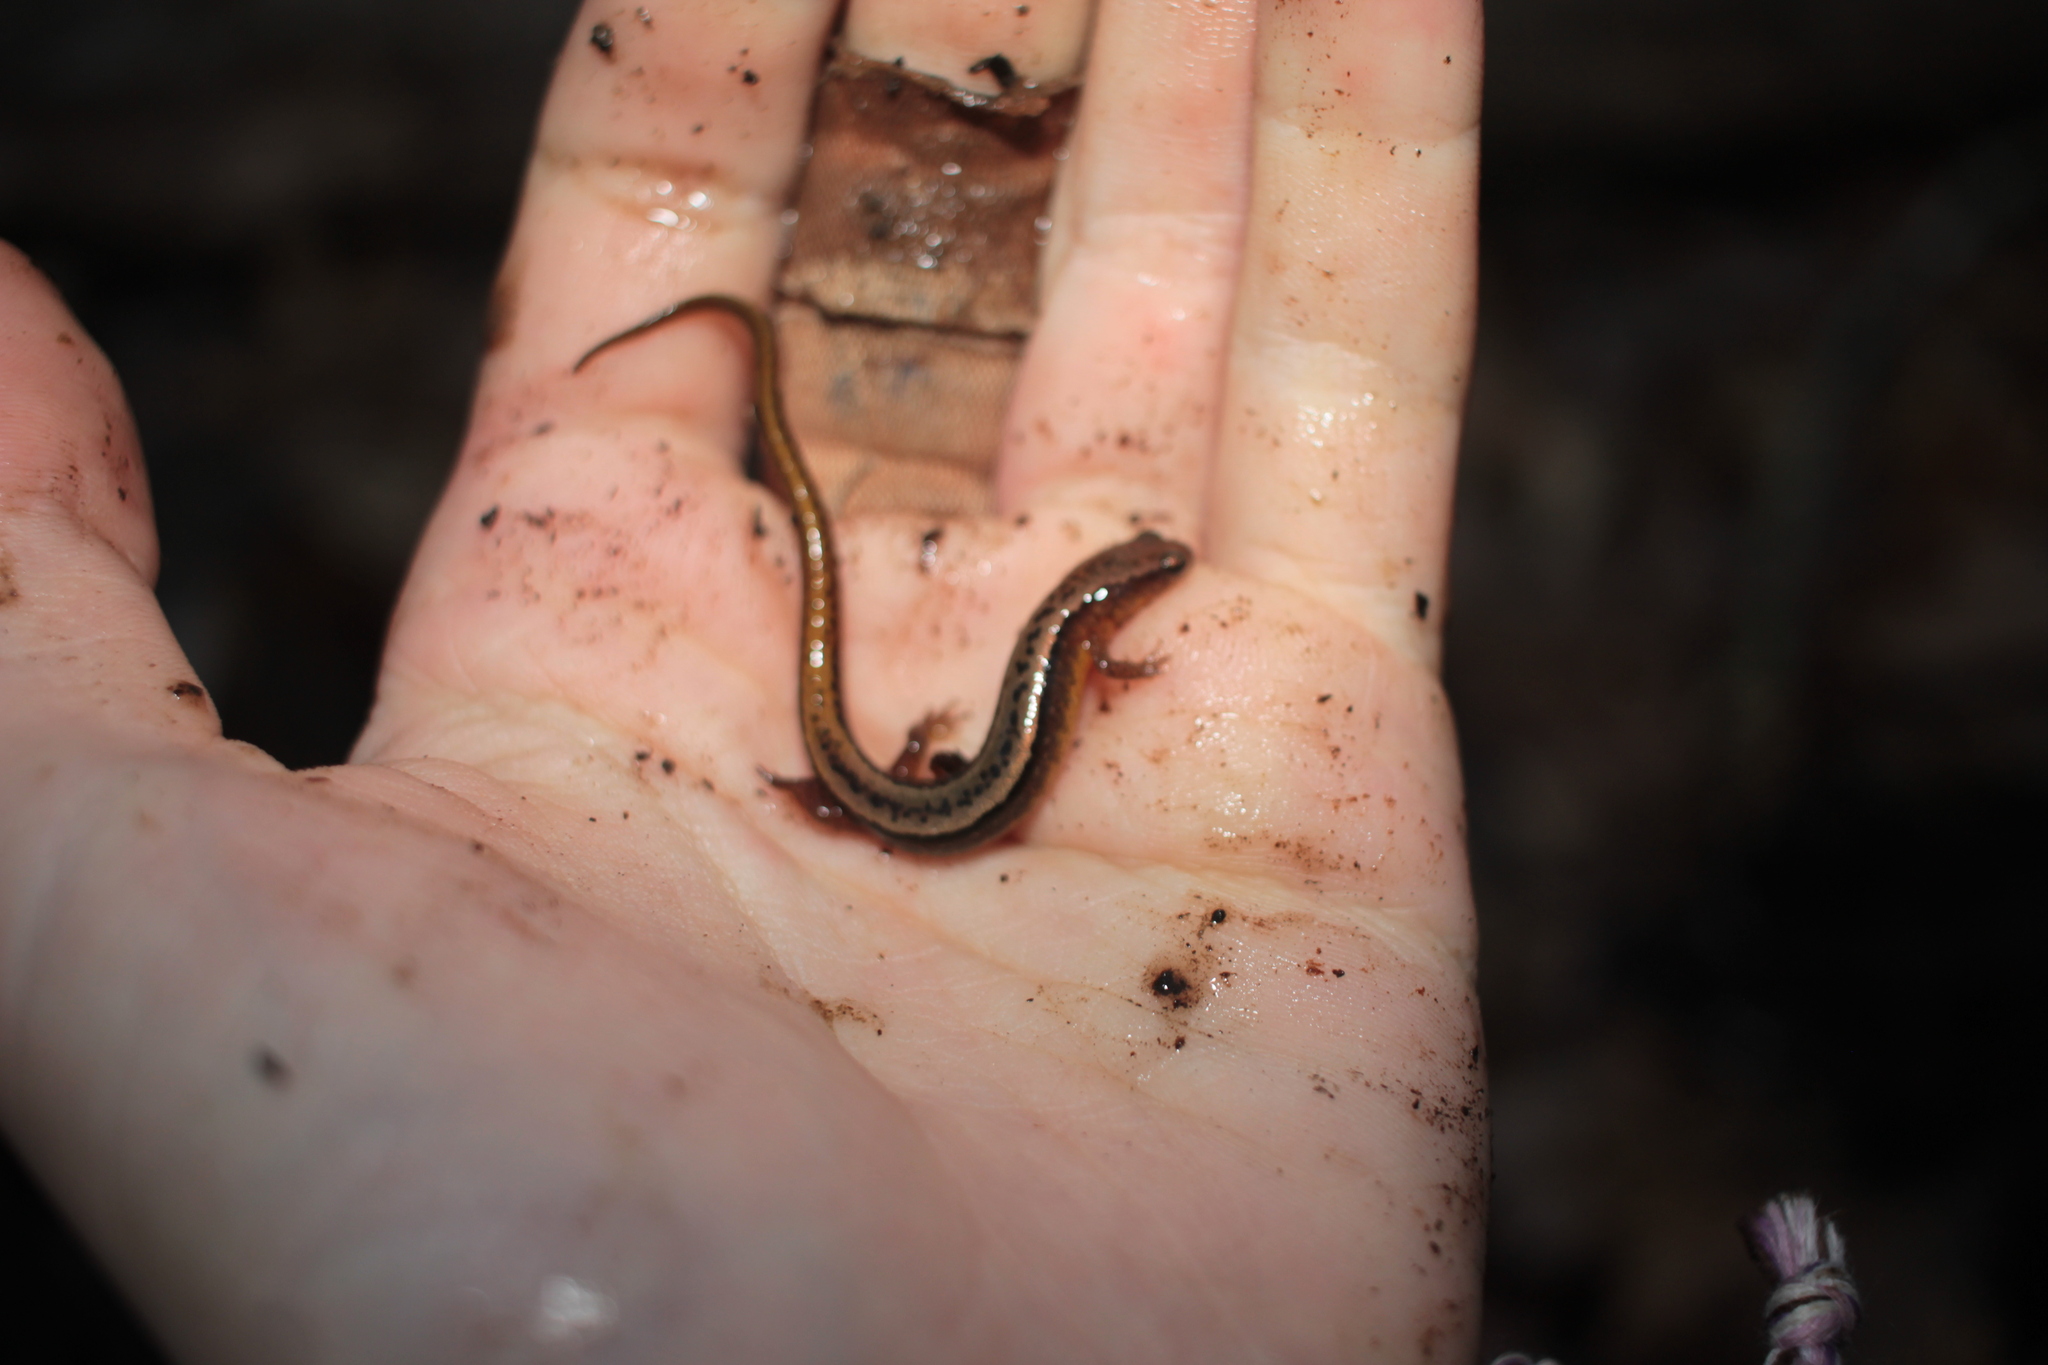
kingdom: Animalia
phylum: Chordata
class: Amphibia
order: Caudata
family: Plethodontidae
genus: Eurycea
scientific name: Eurycea cirrigera
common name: Southern two-lined salamander
